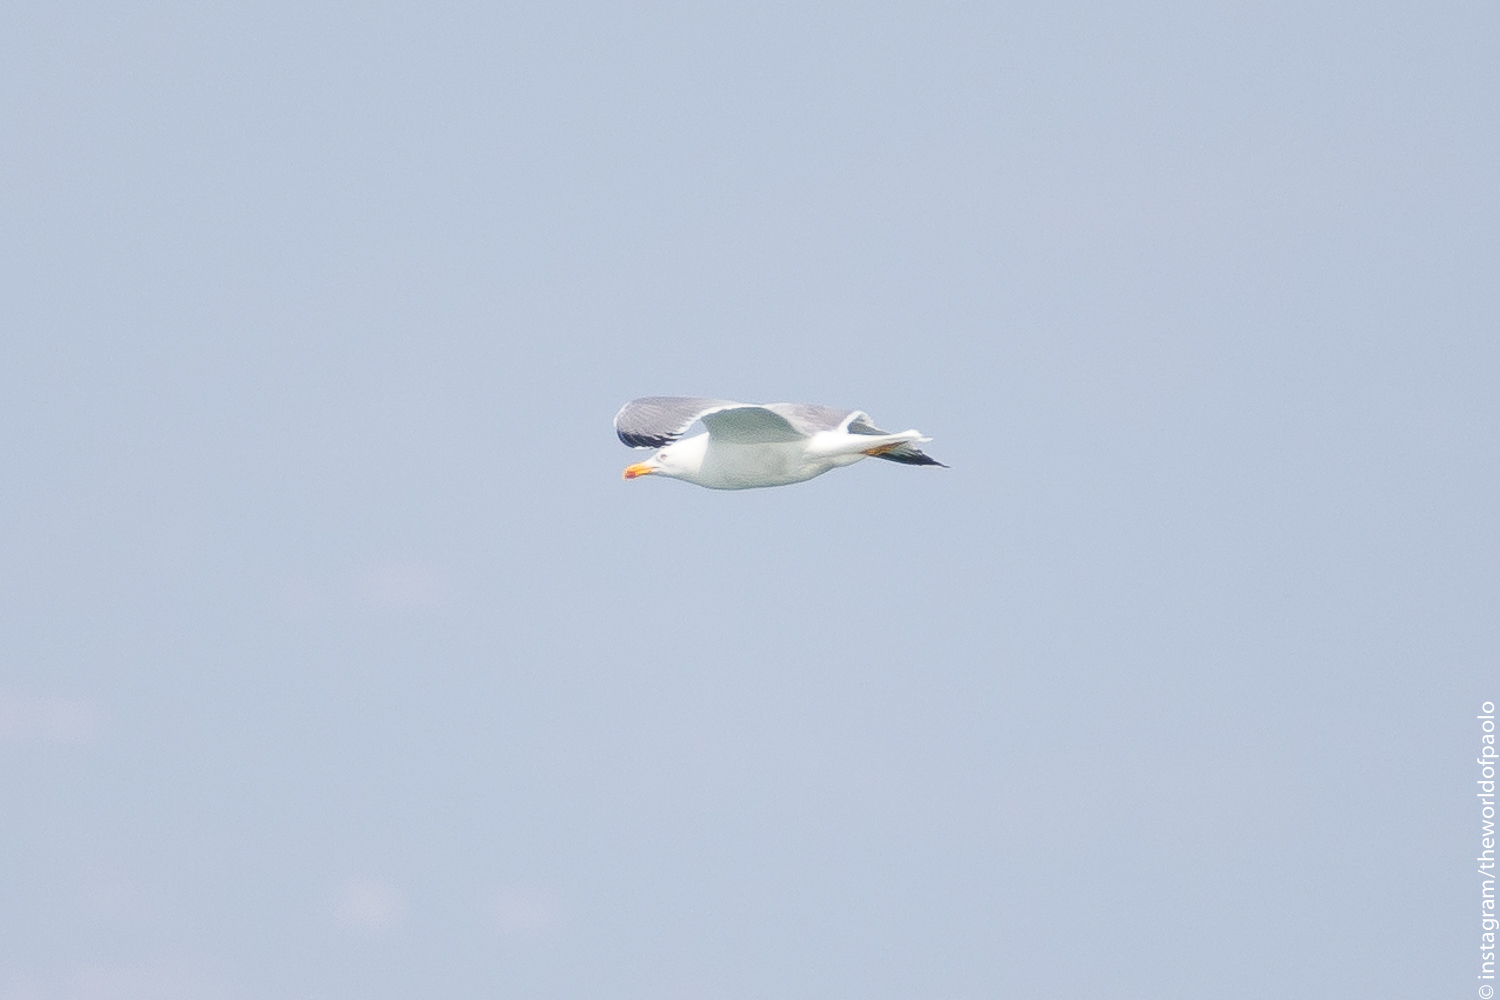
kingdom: Animalia
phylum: Chordata
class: Aves
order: Charadriiformes
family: Laridae
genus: Larus
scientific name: Larus michahellis
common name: Yellow-legged gull
